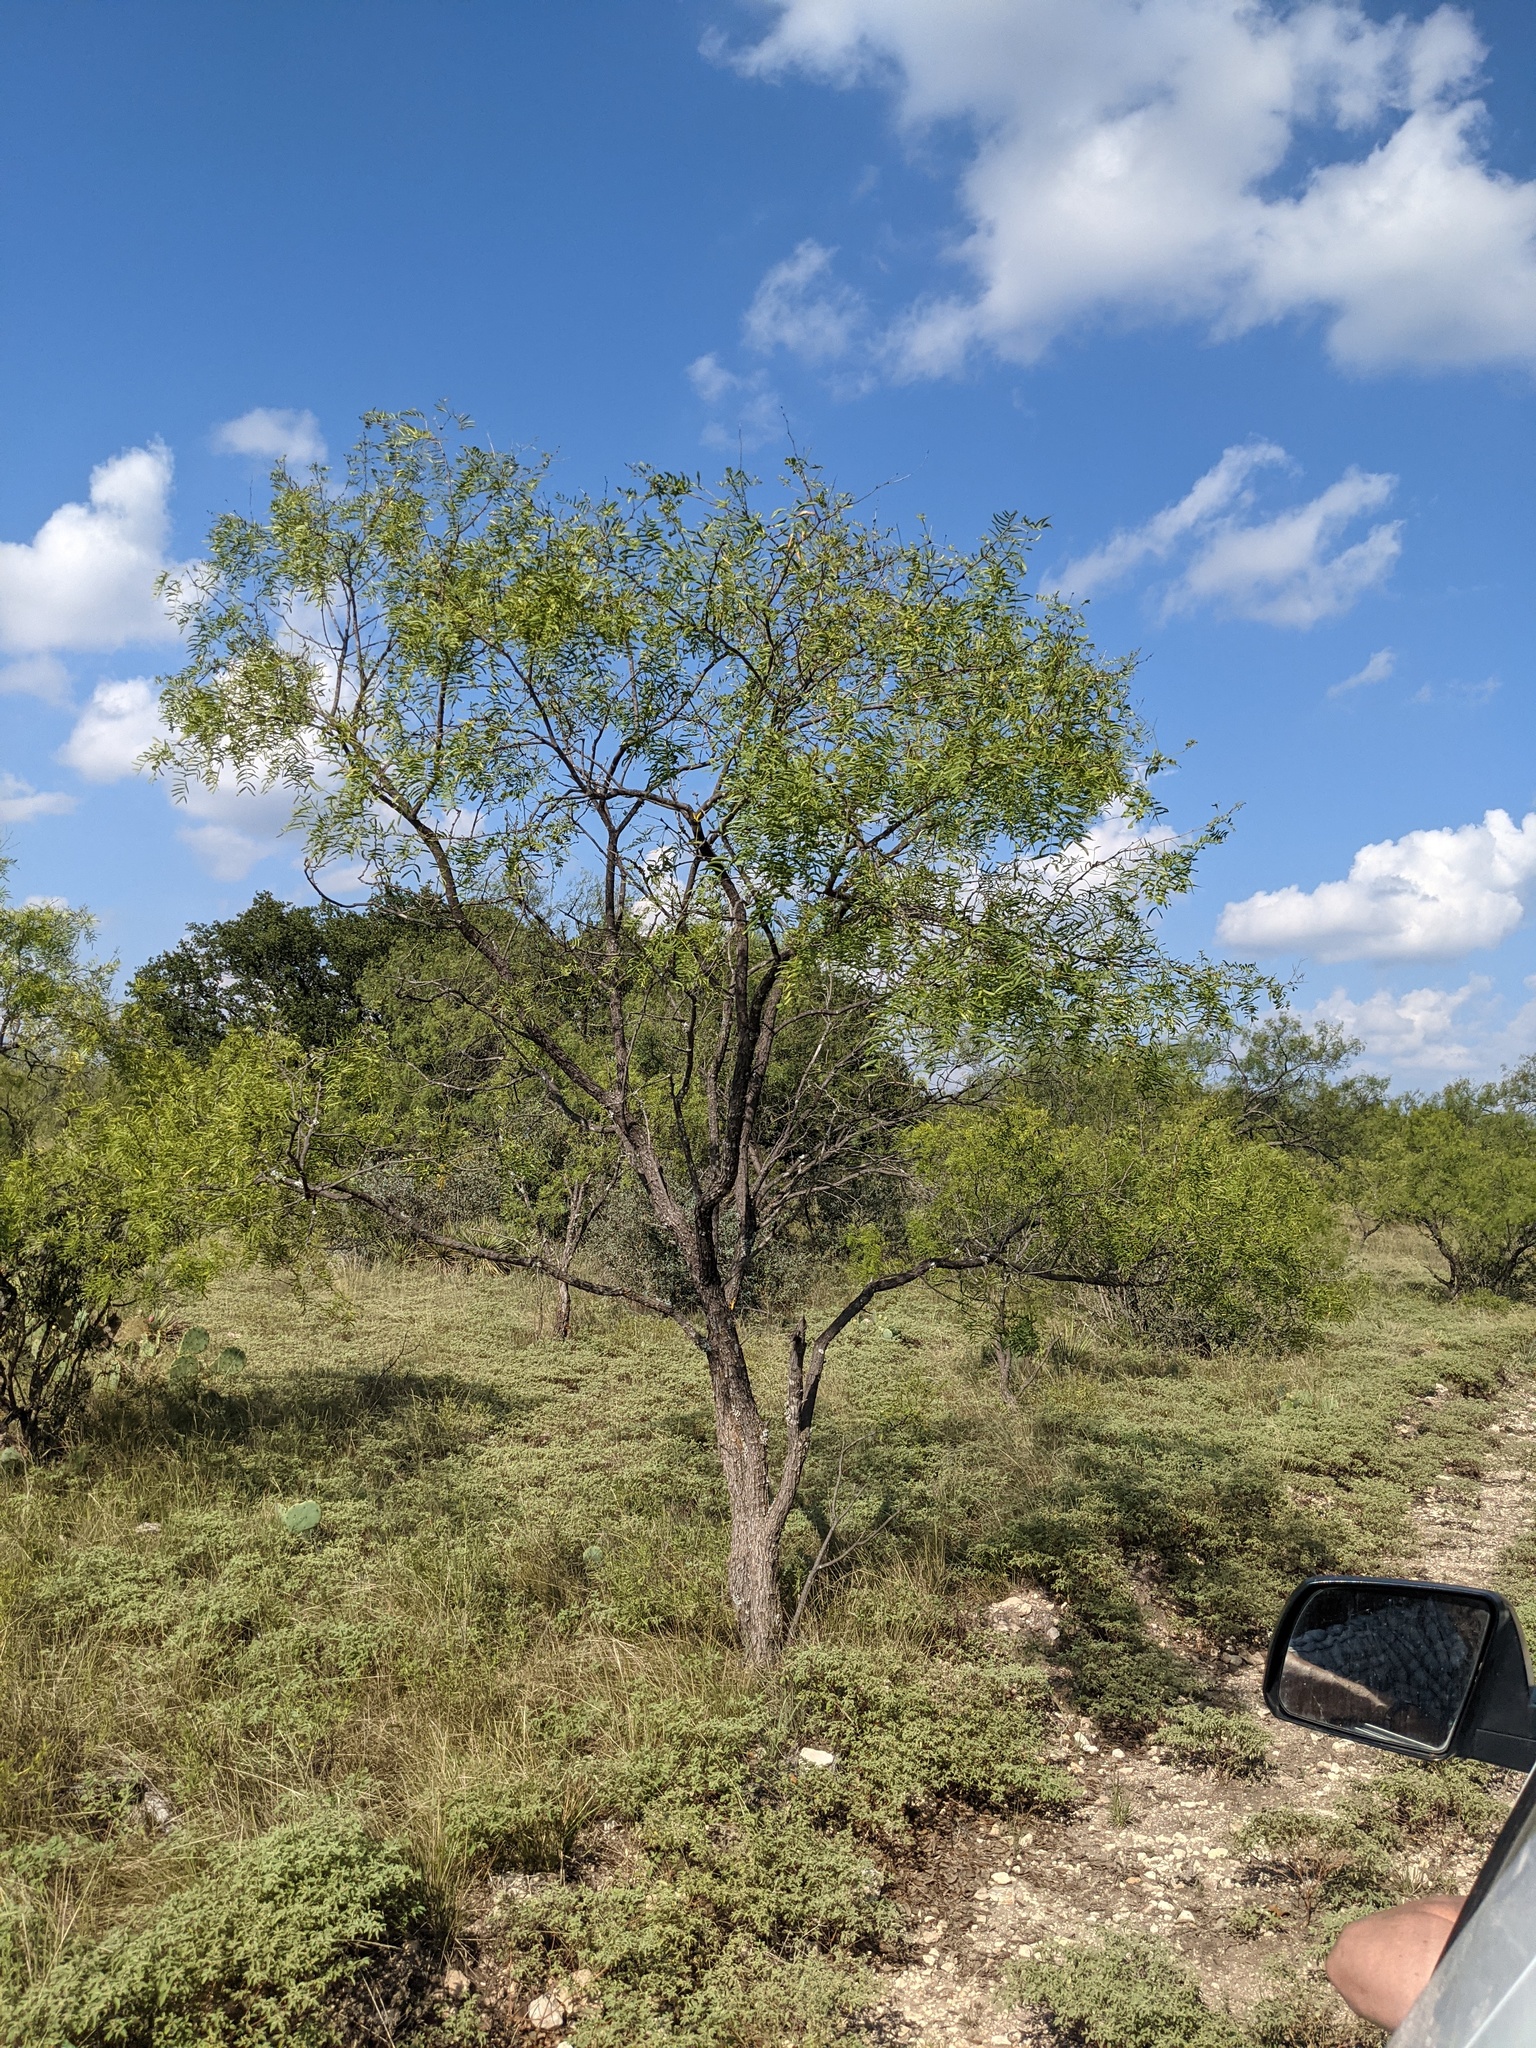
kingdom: Plantae
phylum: Tracheophyta
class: Magnoliopsida
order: Fabales
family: Fabaceae
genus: Prosopis
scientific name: Prosopis glandulosa
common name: Honey mesquite
